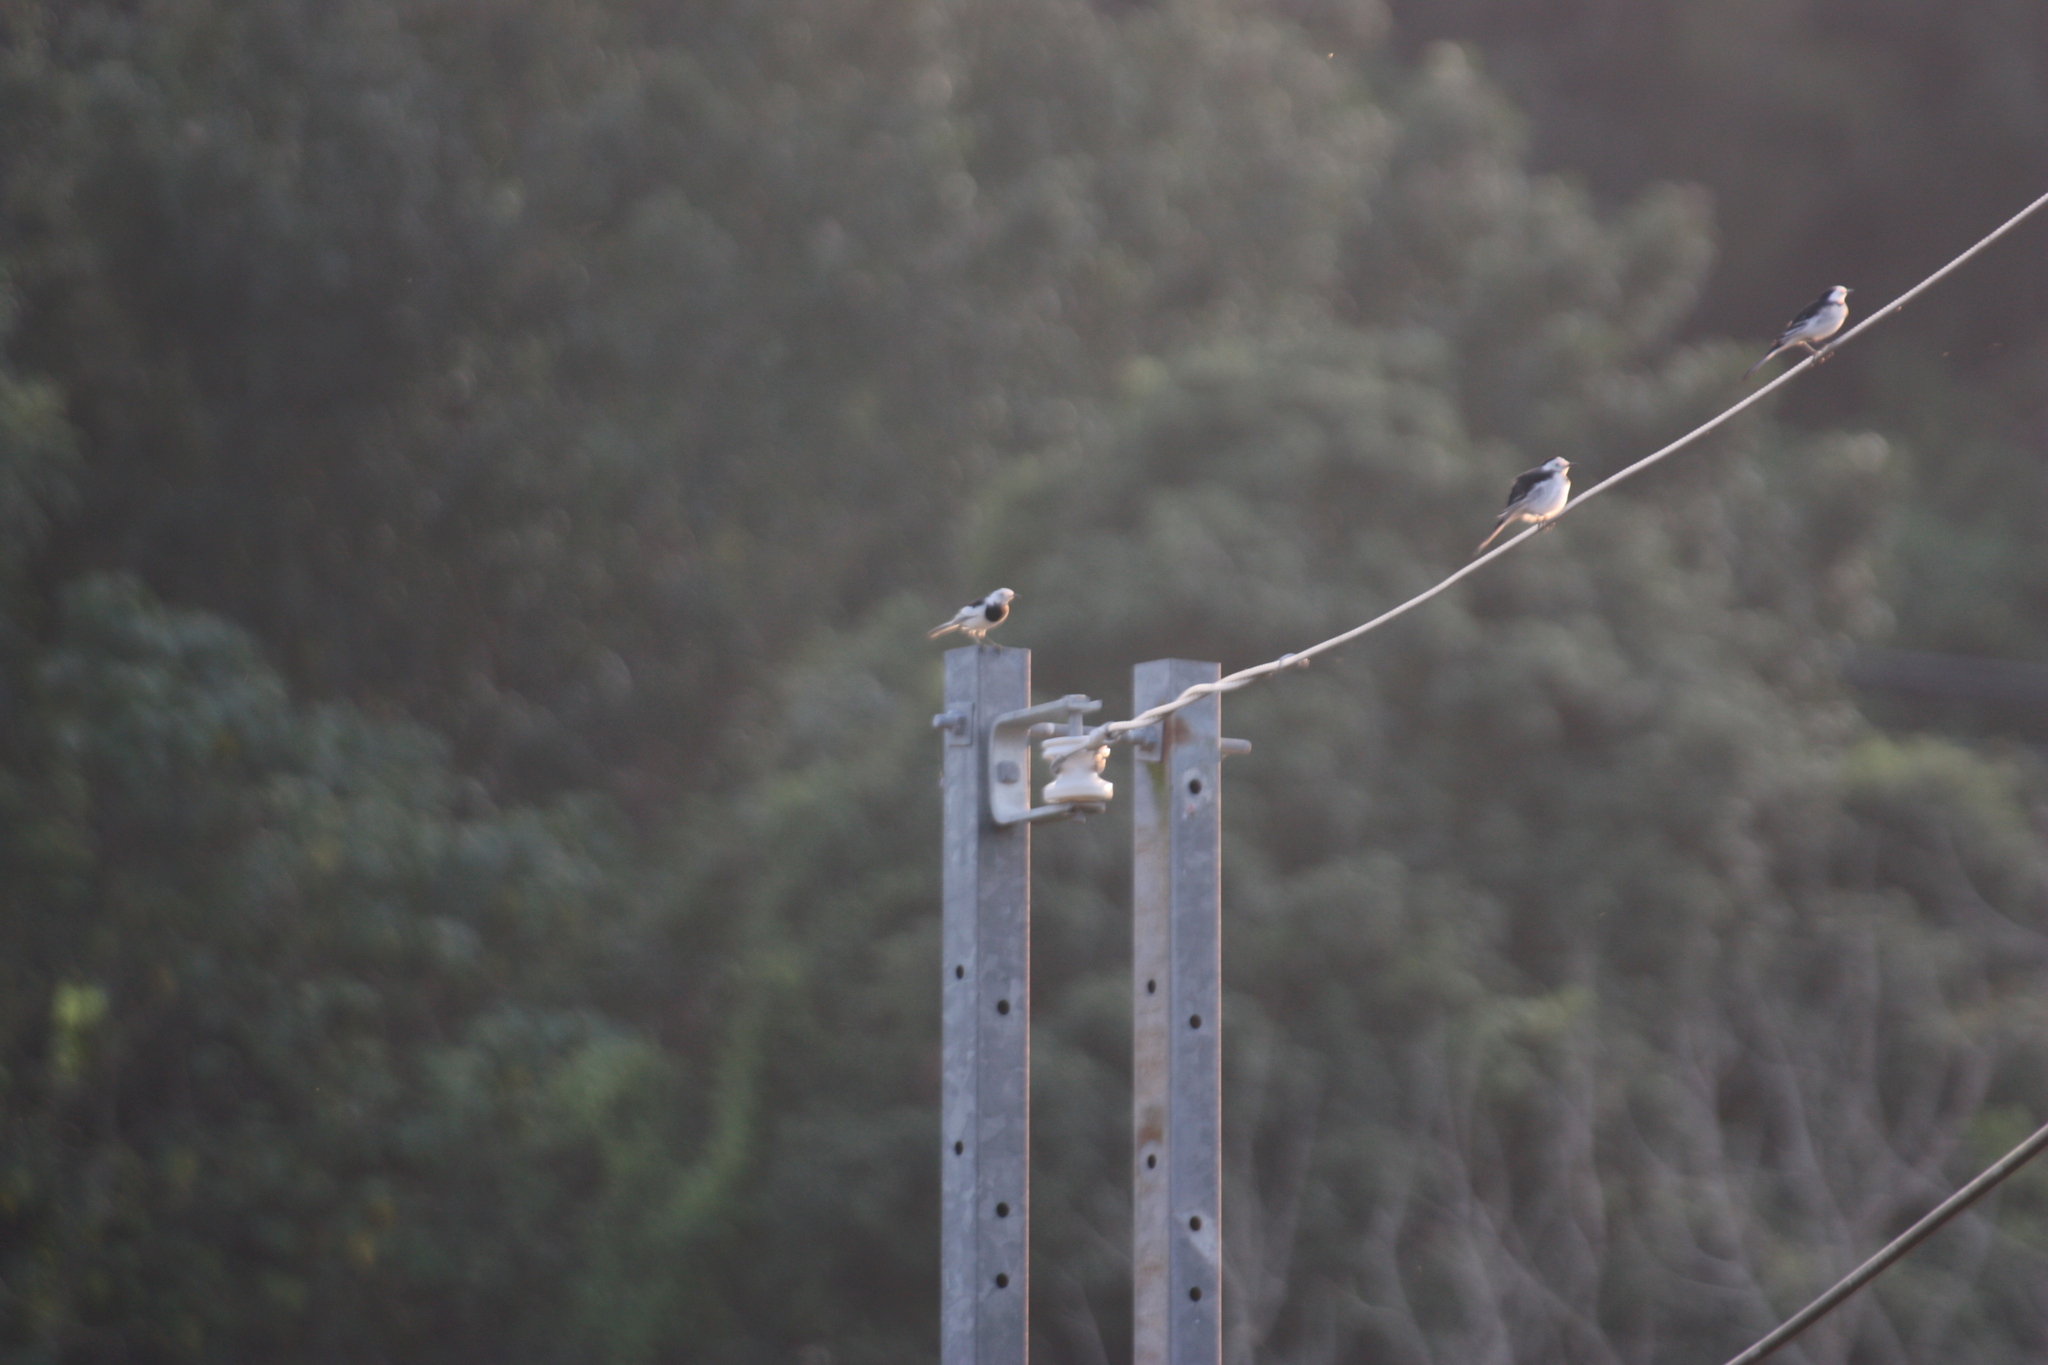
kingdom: Animalia
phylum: Chordata
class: Aves
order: Passeriformes
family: Motacillidae
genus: Motacilla
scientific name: Motacilla alba
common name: White wagtail
